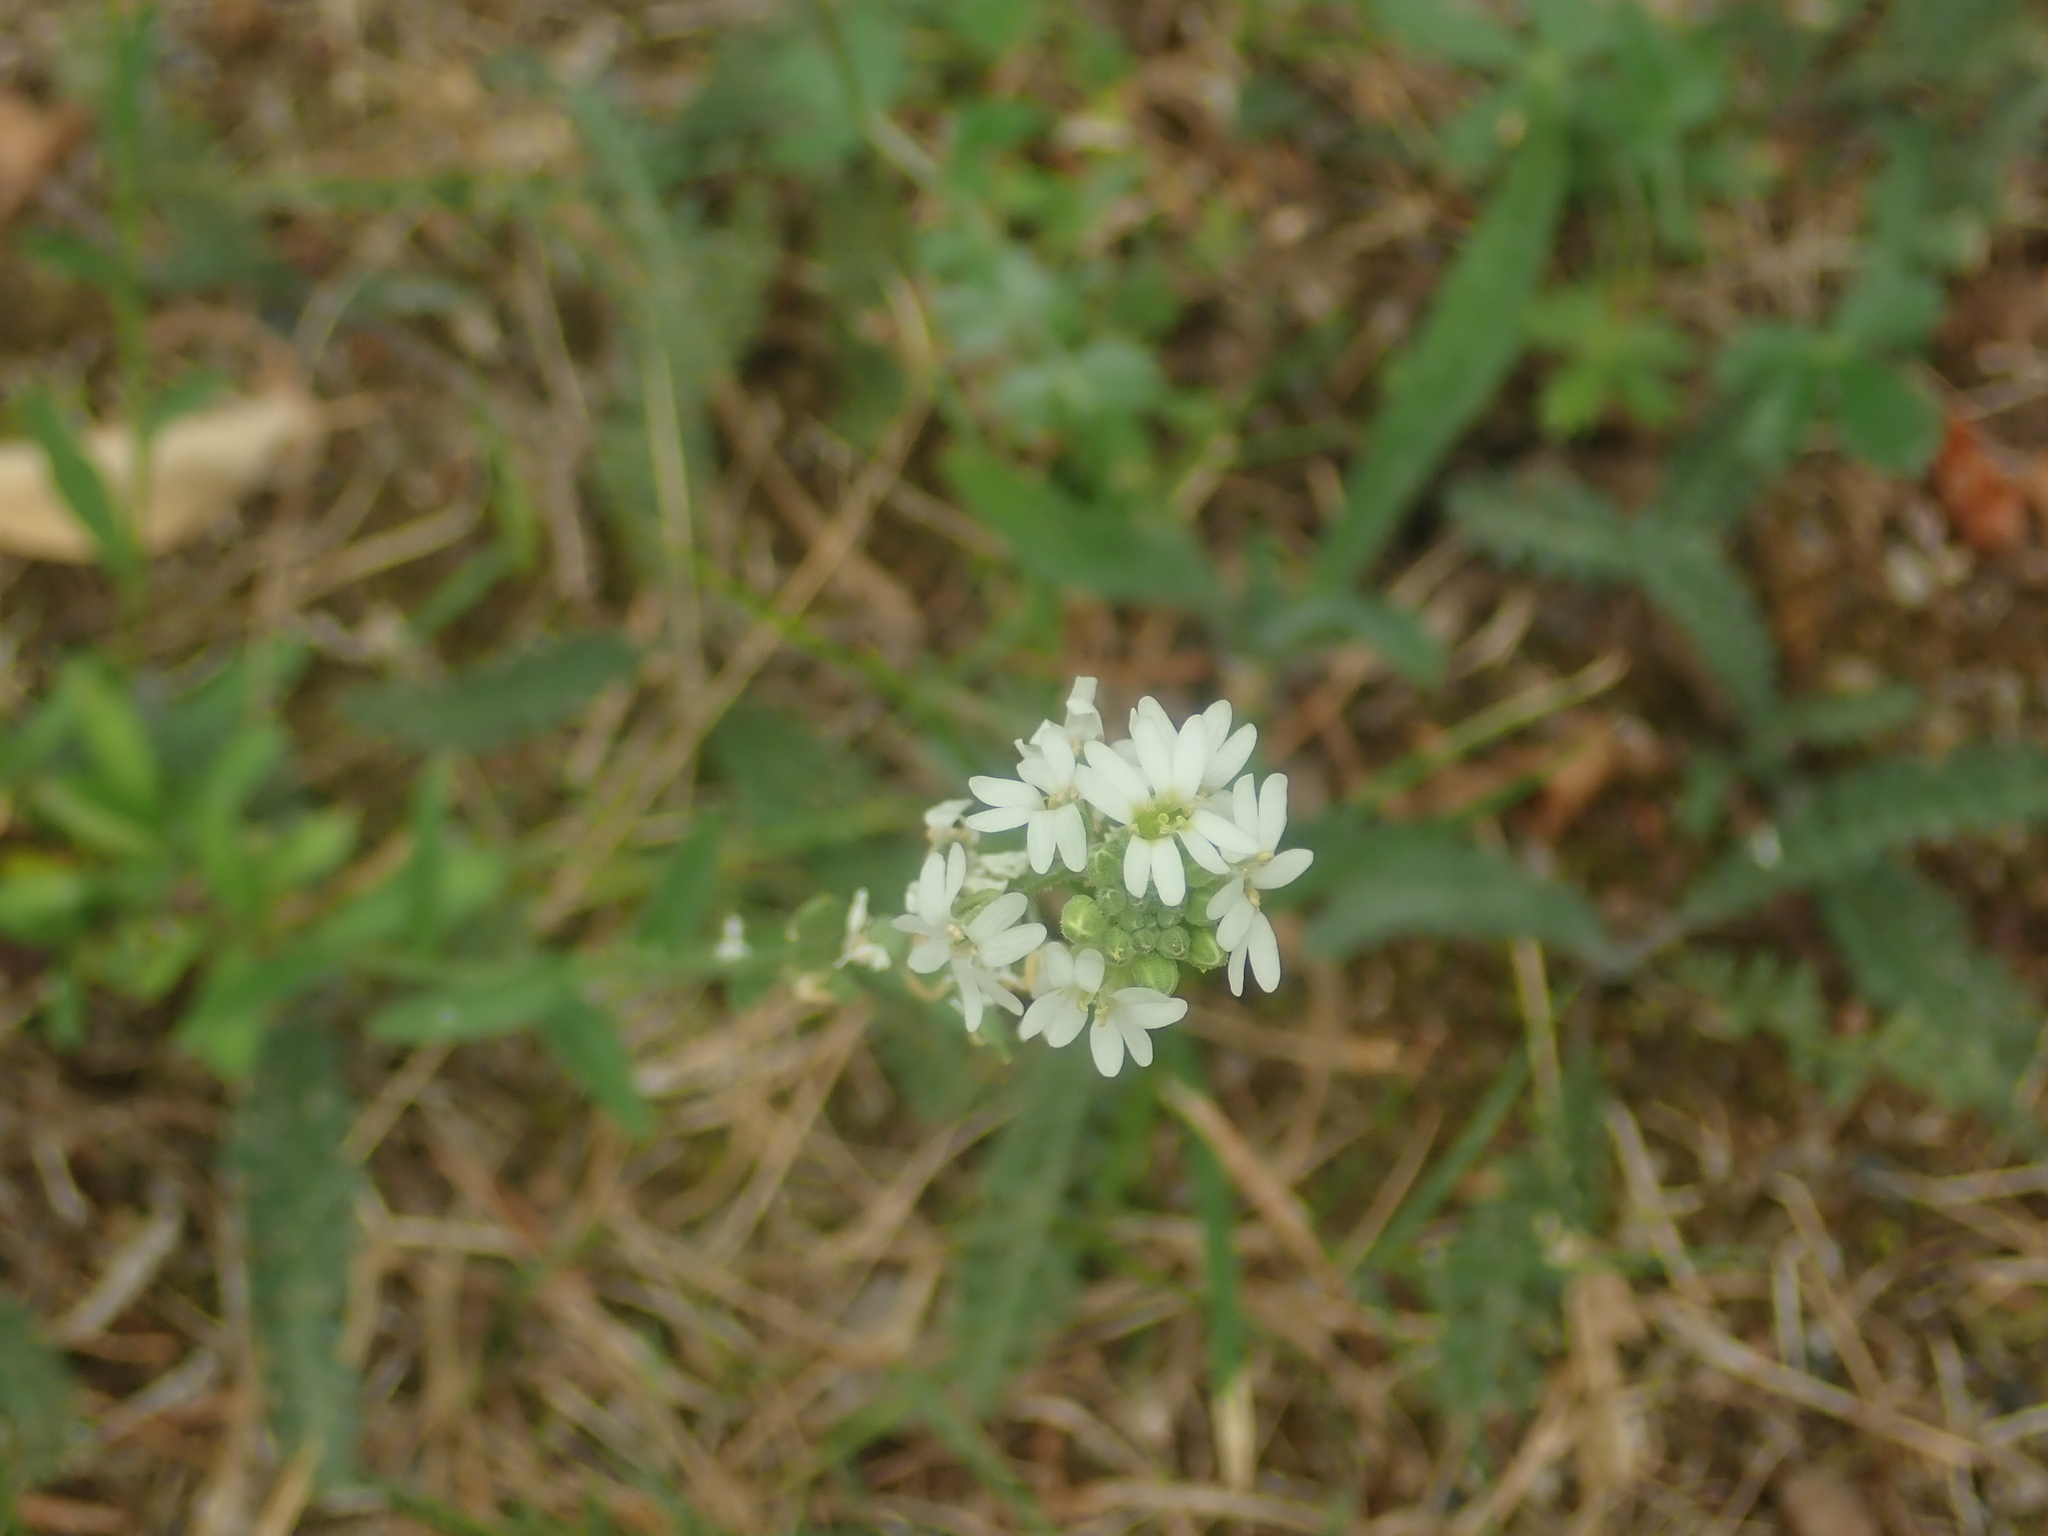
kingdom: Plantae
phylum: Tracheophyta
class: Magnoliopsida
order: Brassicales
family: Brassicaceae
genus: Berteroa
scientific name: Berteroa incana
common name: Hoary alison
